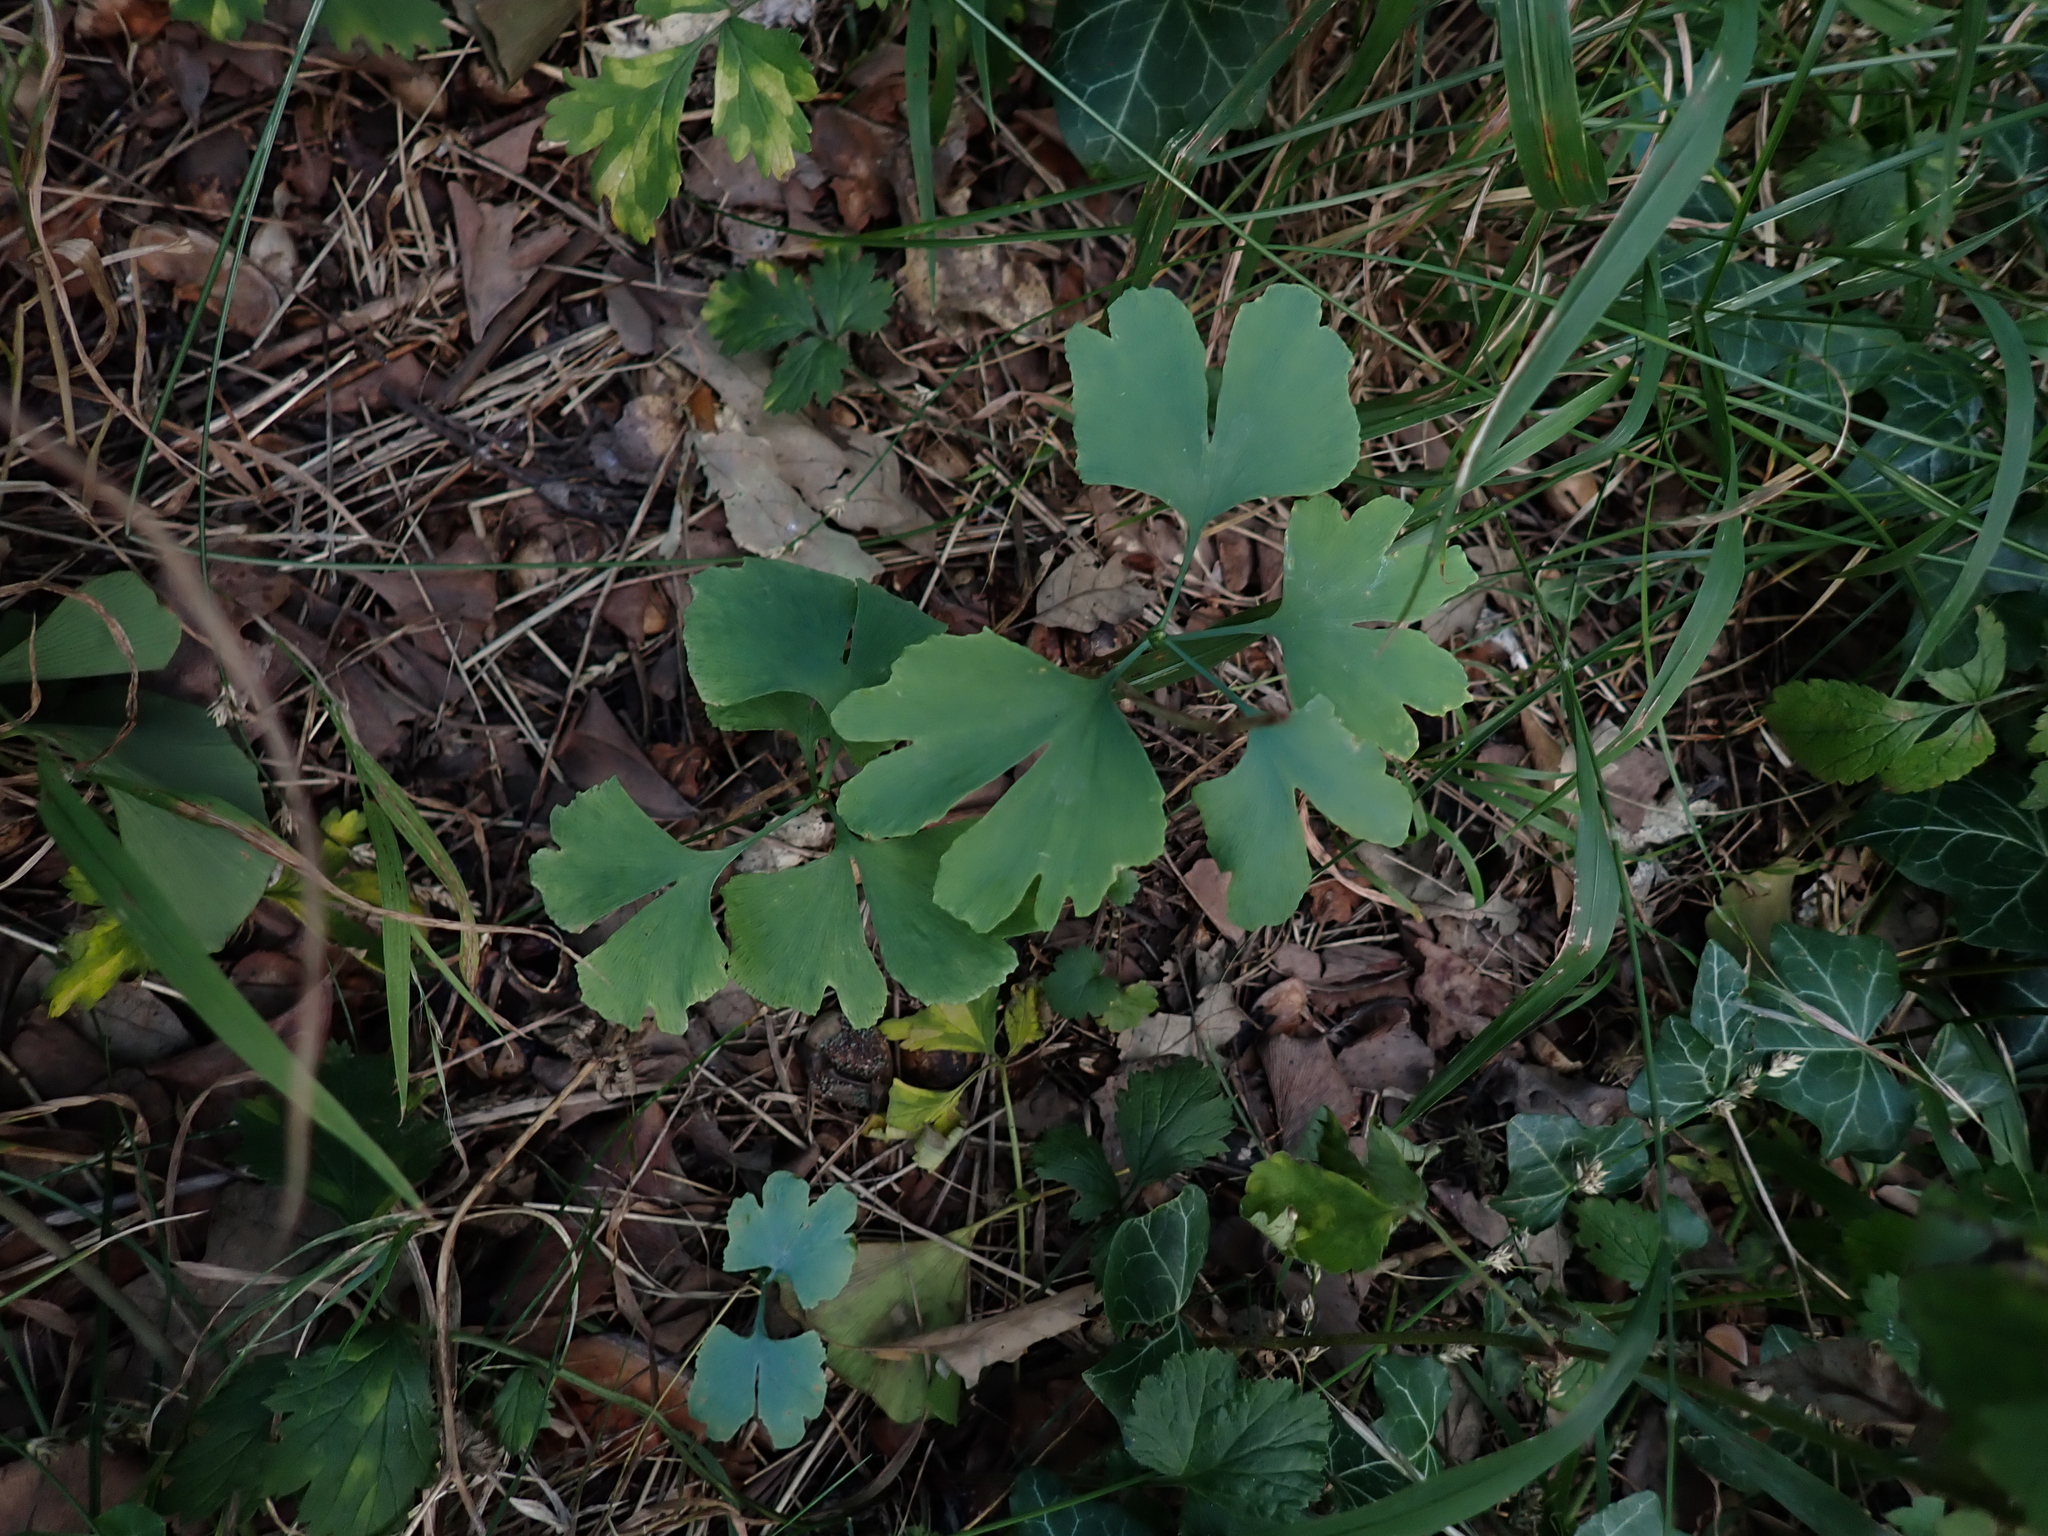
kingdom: Plantae
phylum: Tracheophyta
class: Ginkgoopsida
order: Ginkgoales
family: Ginkgoaceae
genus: Ginkgo
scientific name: Ginkgo biloba
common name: Ginkgo
